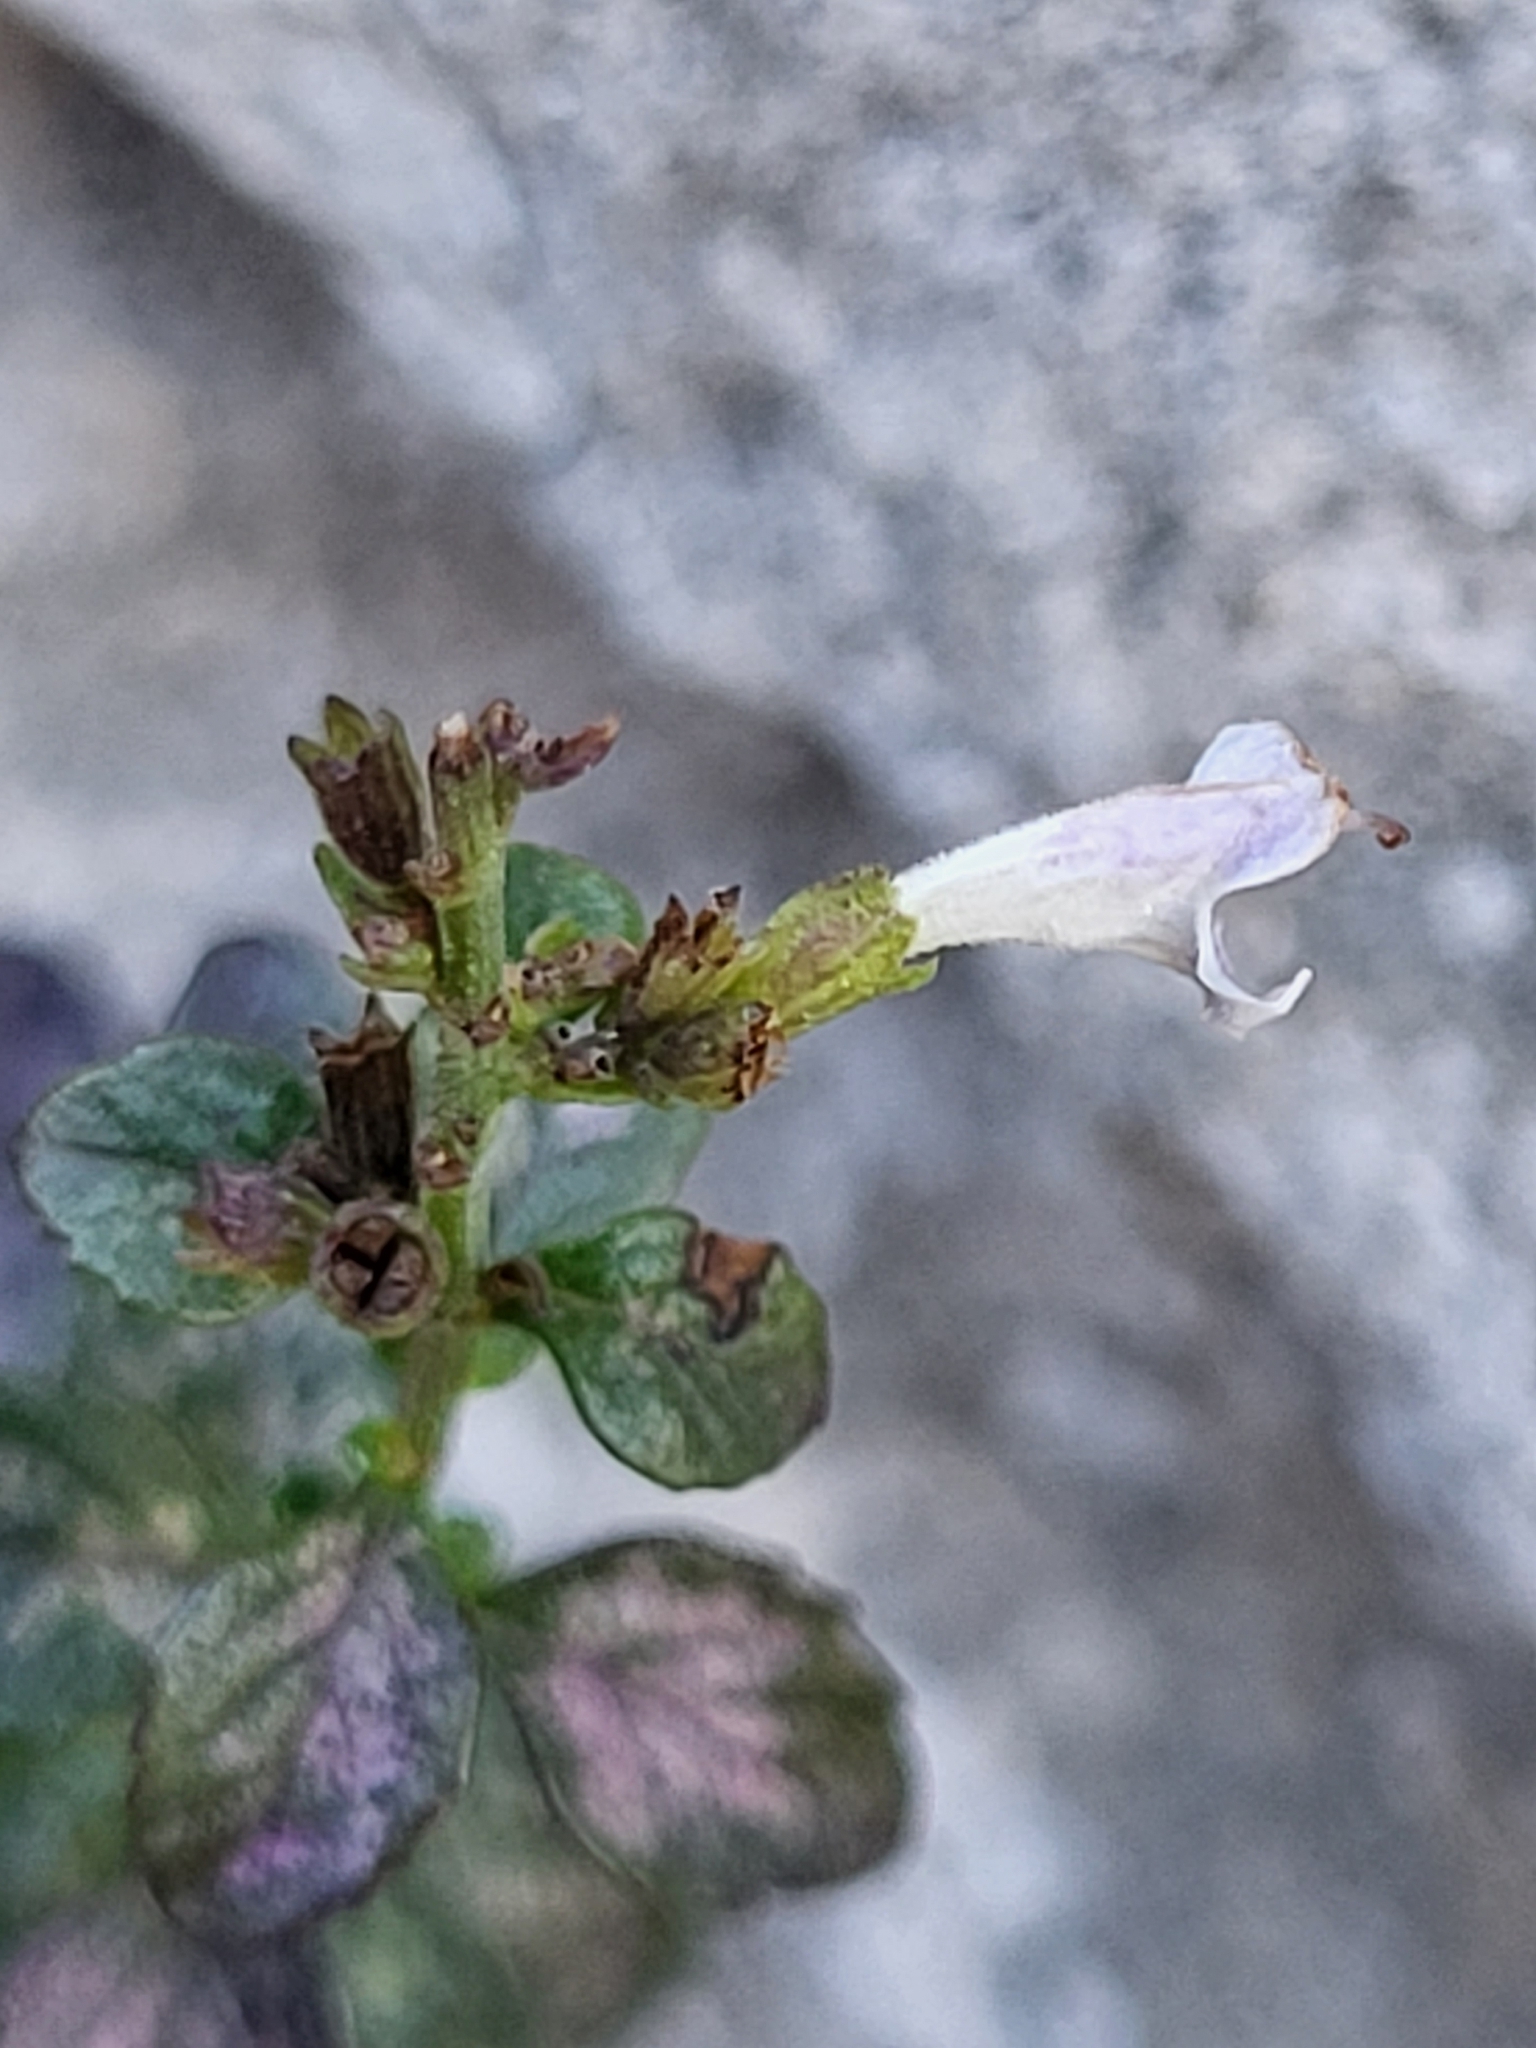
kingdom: Plantae
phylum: Tracheophyta
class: Magnoliopsida
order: Lamiales
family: Lamiaceae
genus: Clinopodium
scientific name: Clinopodium album
